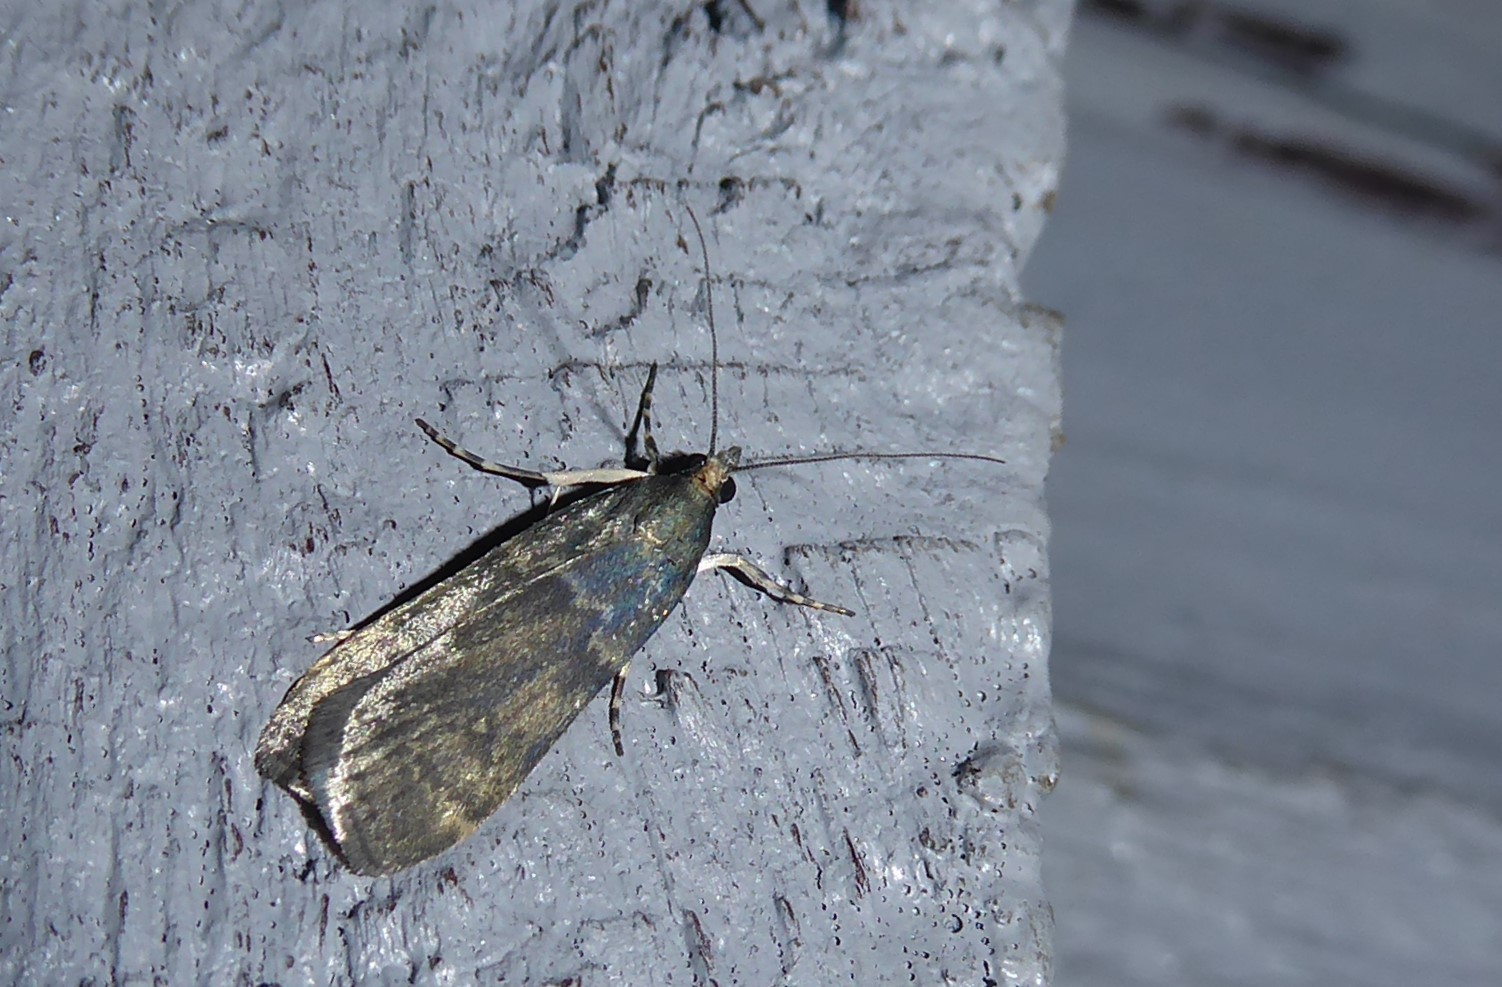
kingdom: Animalia
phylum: Arthropoda
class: Insecta
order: Lepidoptera
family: Crambidae
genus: Eudonia
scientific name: Eudonia cataxesta
